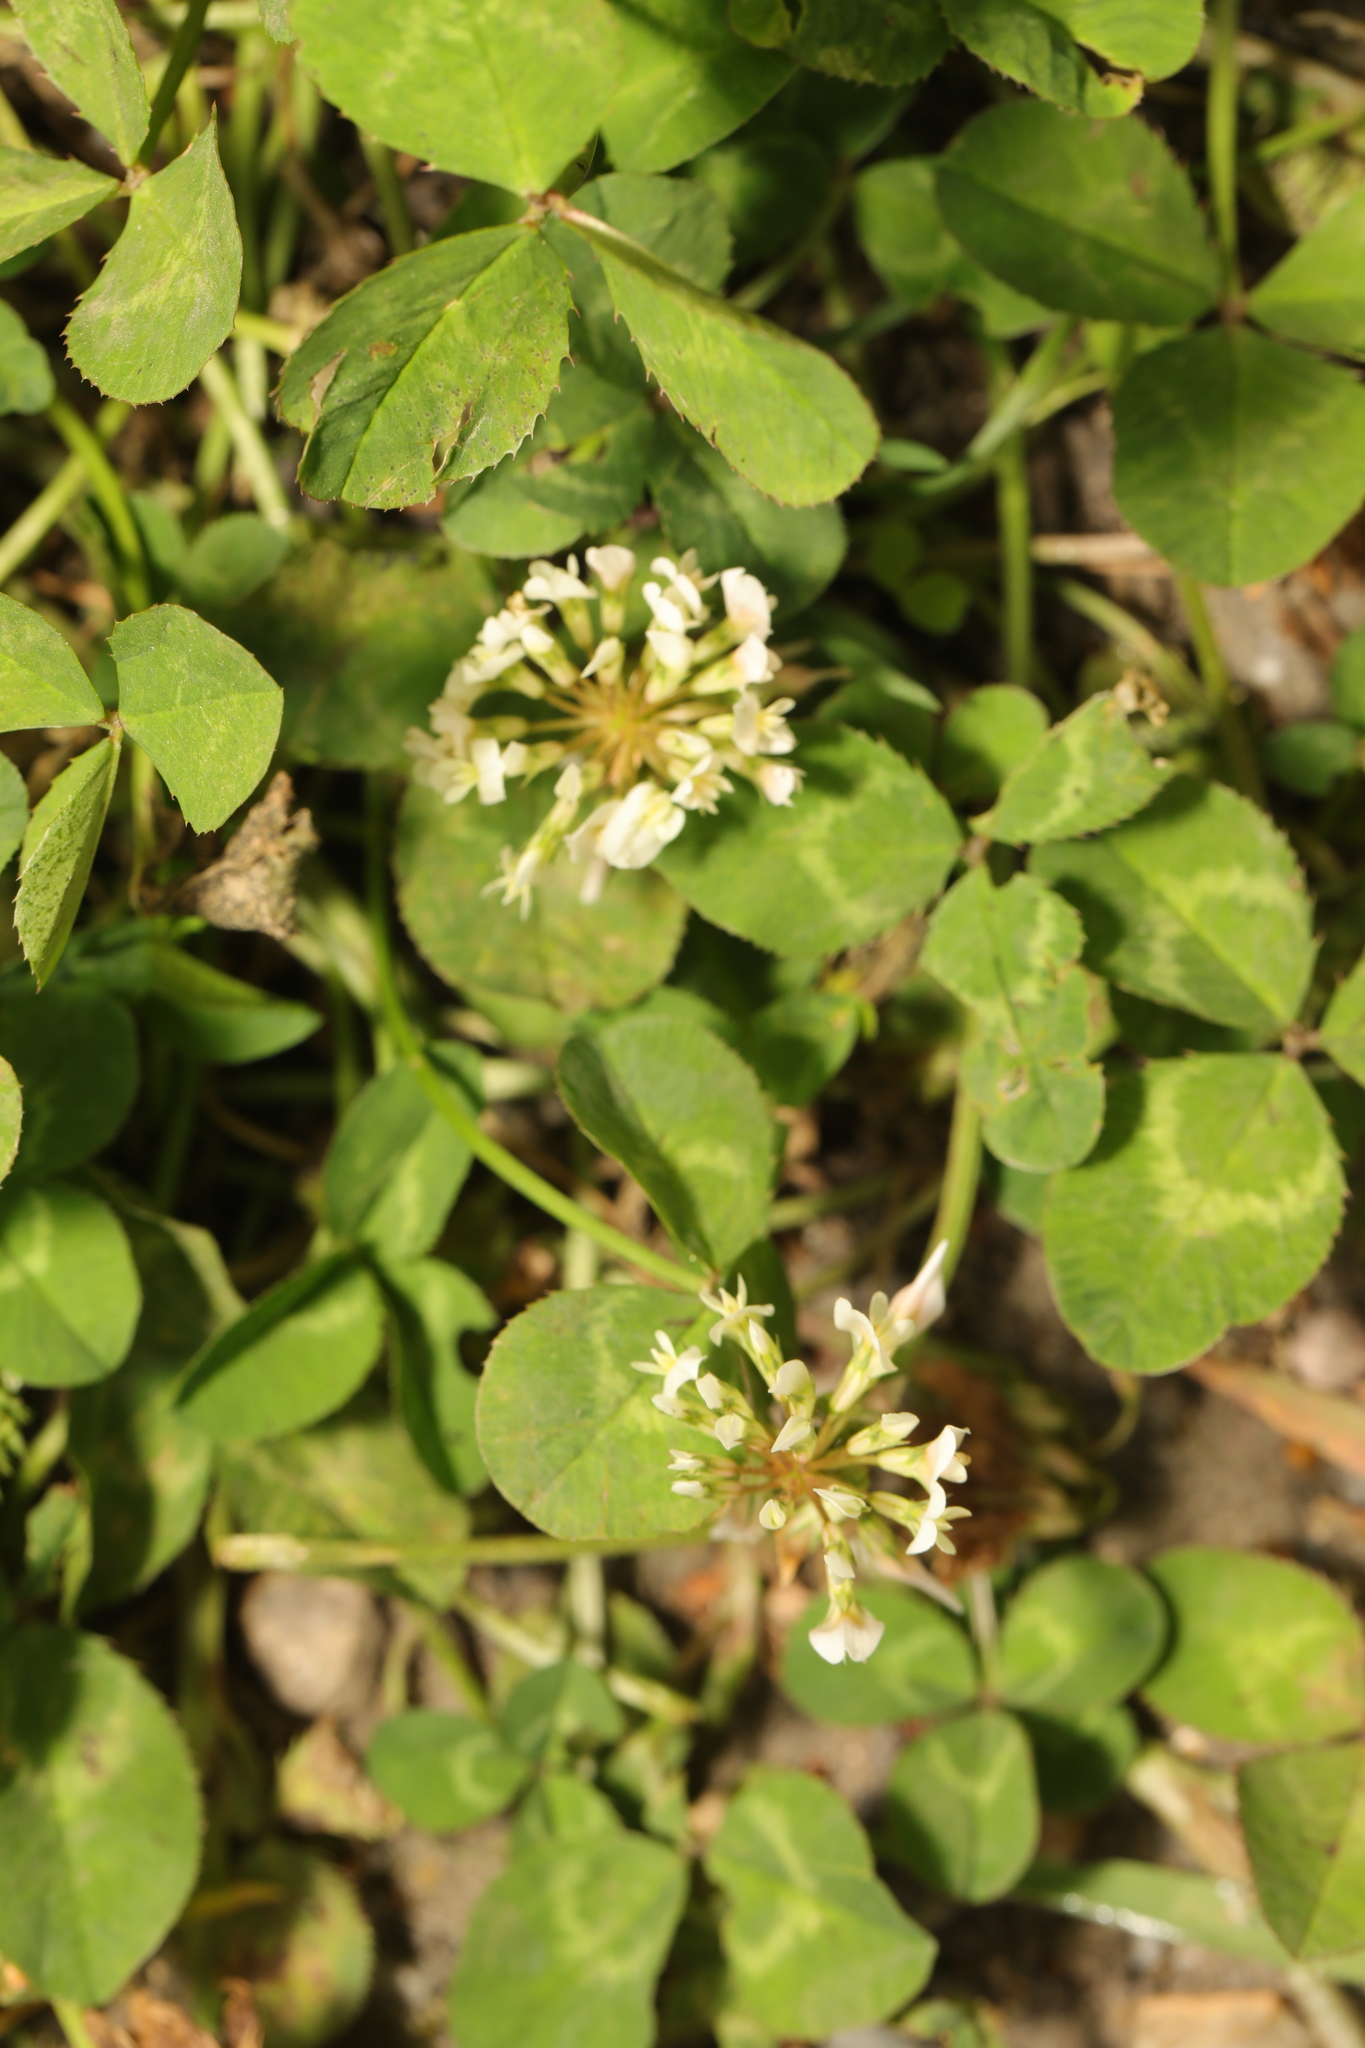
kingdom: Plantae
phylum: Tracheophyta
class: Magnoliopsida
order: Fabales
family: Fabaceae
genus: Trifolium
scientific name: Trifolium repens
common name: White clover
